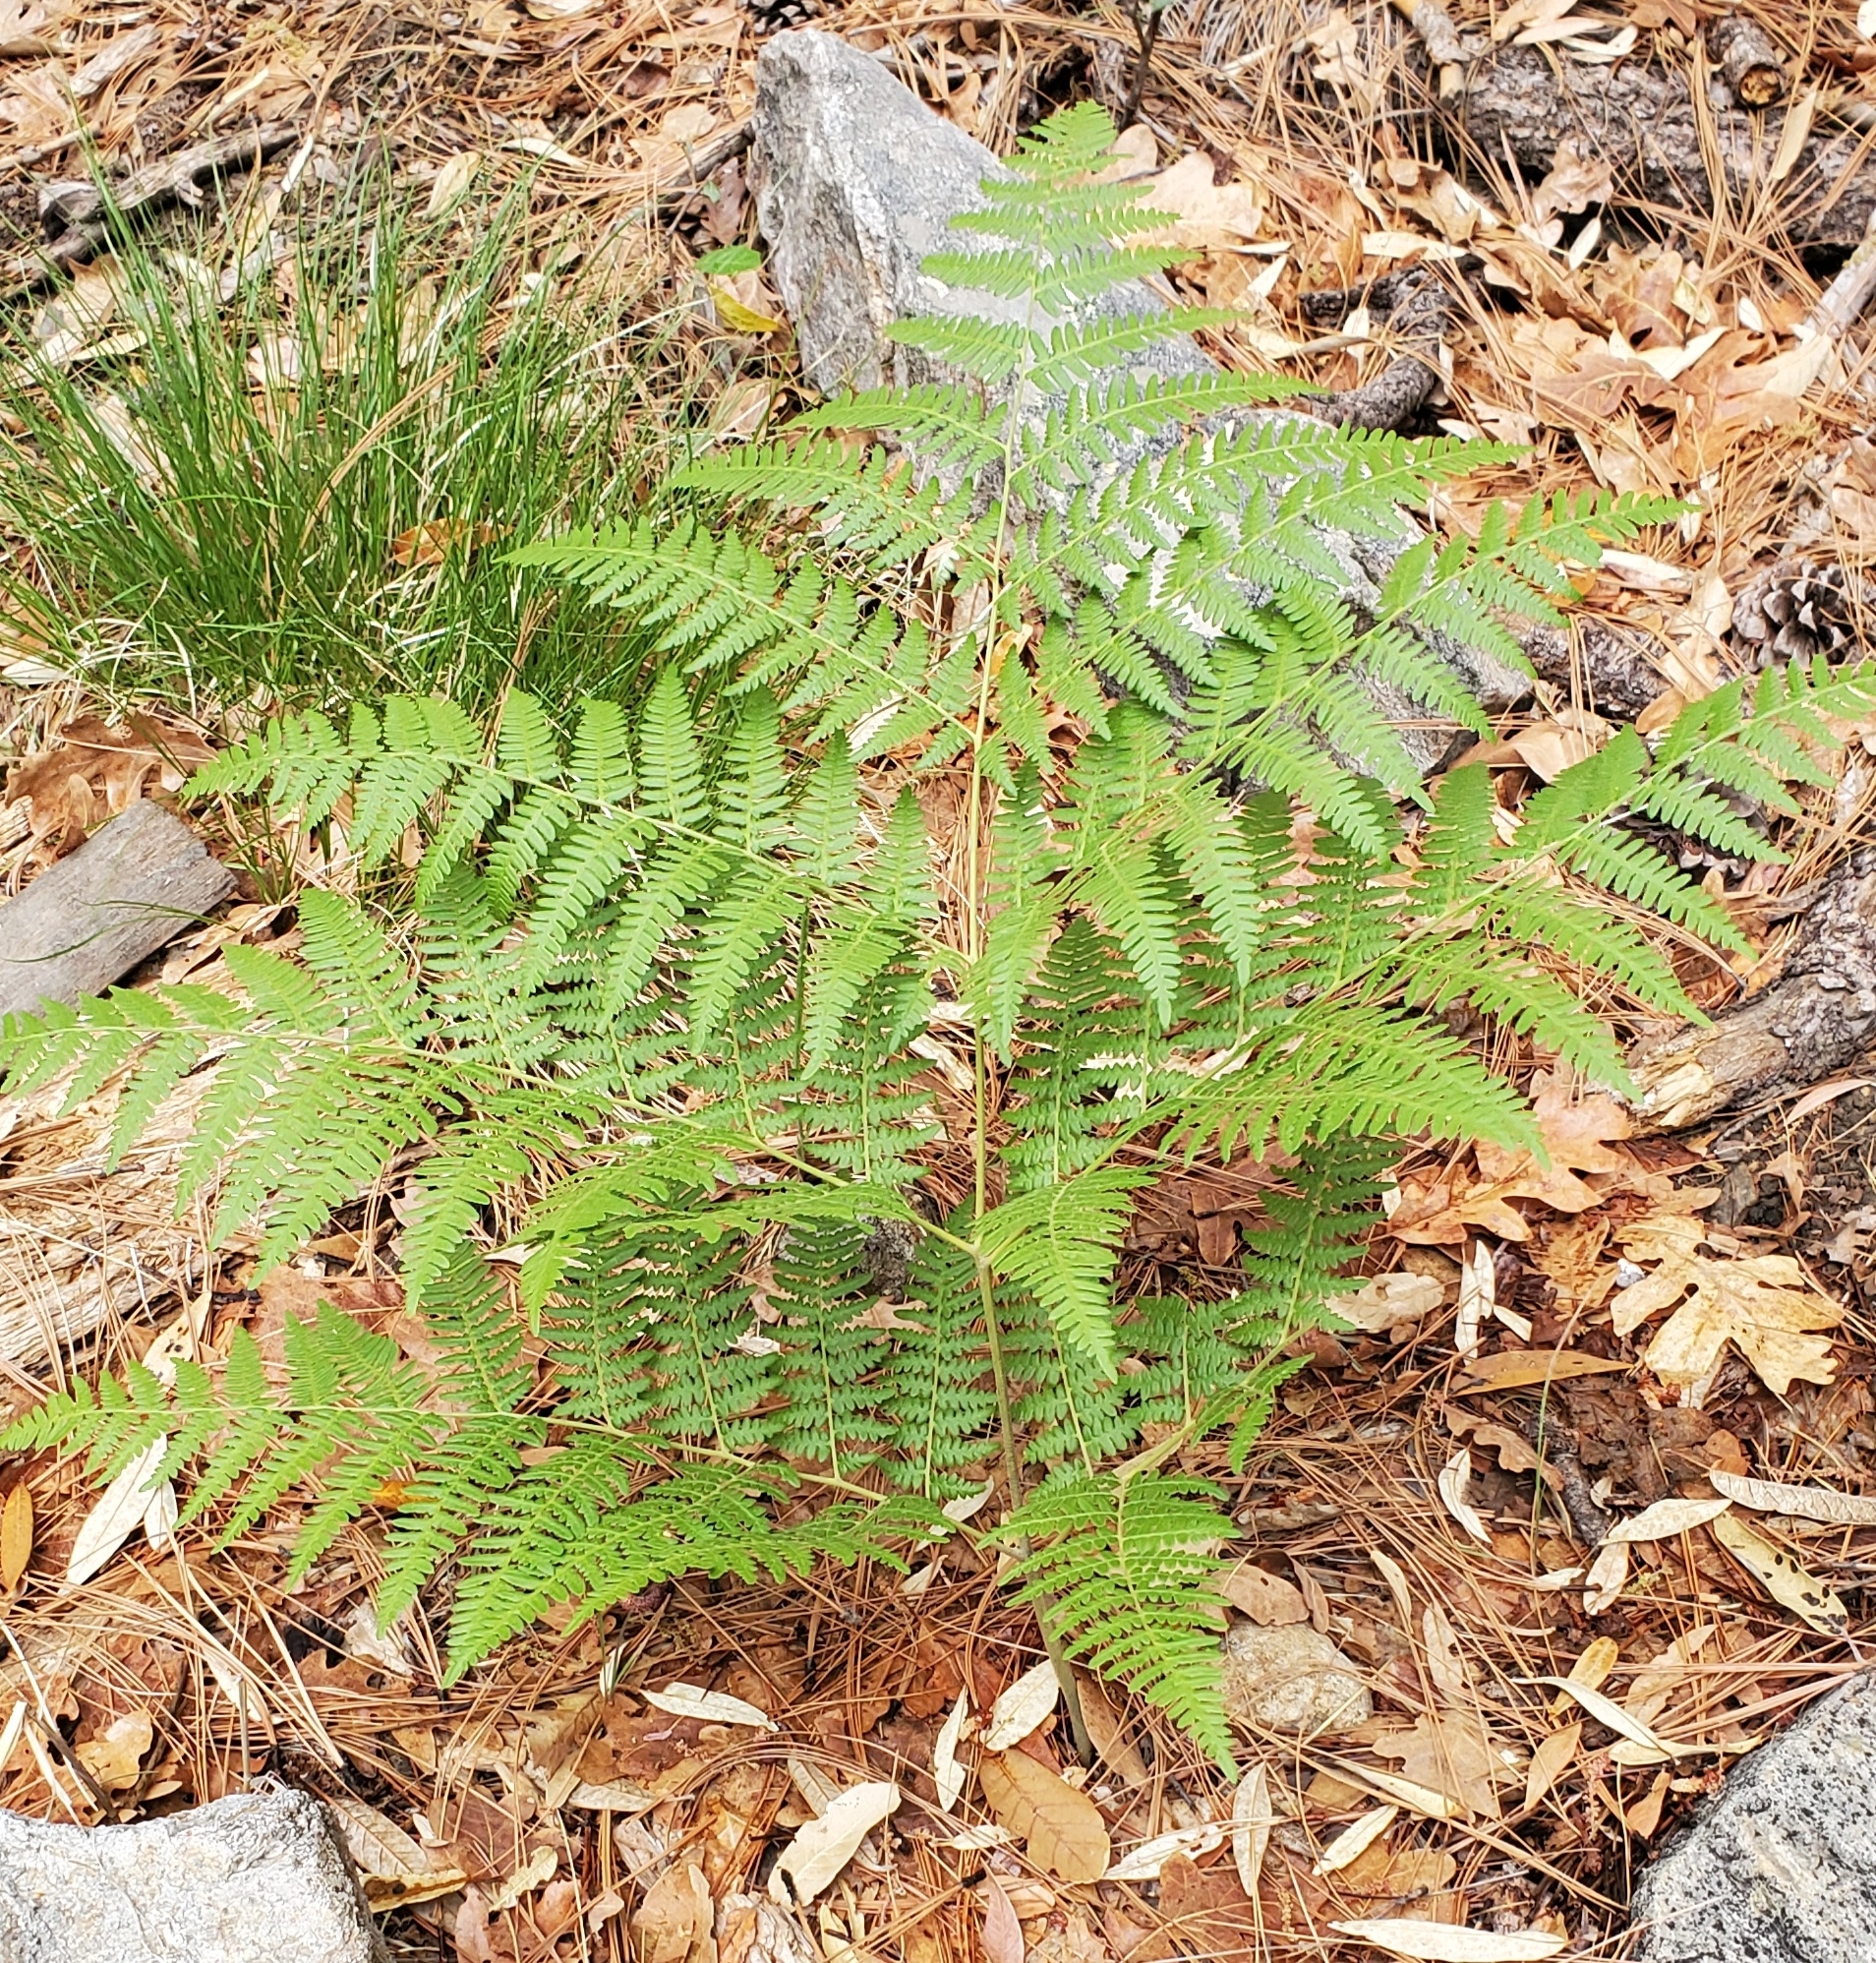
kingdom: Plantae
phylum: Tracheophyta
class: Polypodiopsida
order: Polypodiales
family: Dennstaedtiaceae
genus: Pteridium
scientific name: Pteridium aquilinum
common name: Bracken
